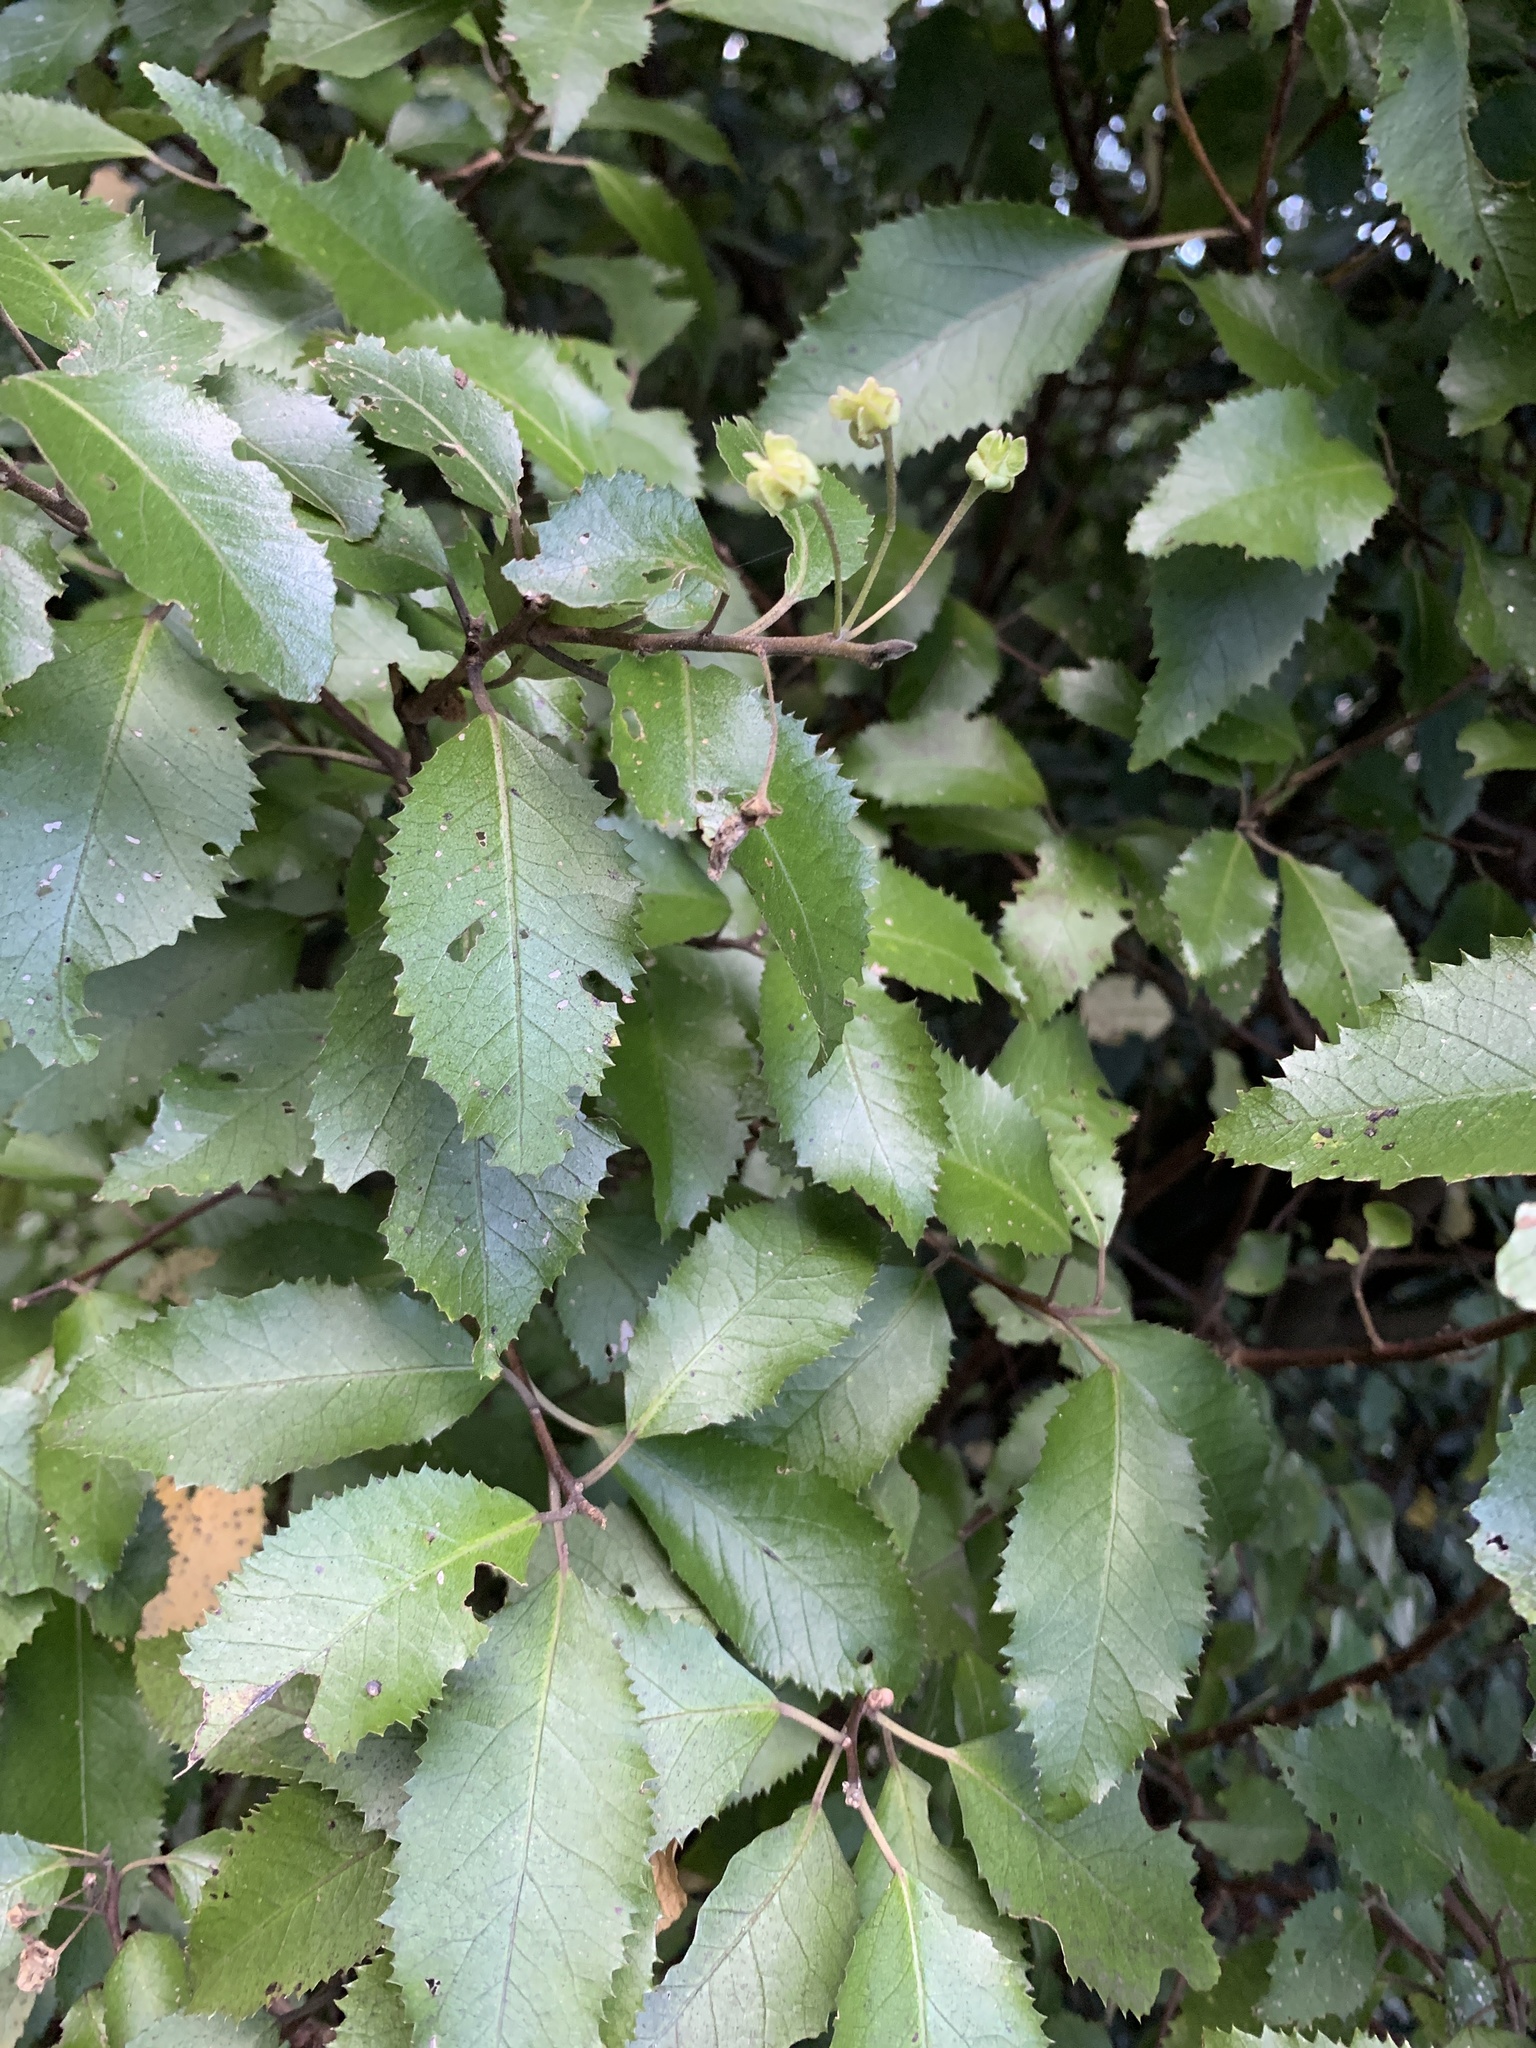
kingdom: Plantae
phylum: Tracheophyta
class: Magnoliopsida
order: Malvales
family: Malvaceae
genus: Hoheria
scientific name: Hoheria sexstylosa
